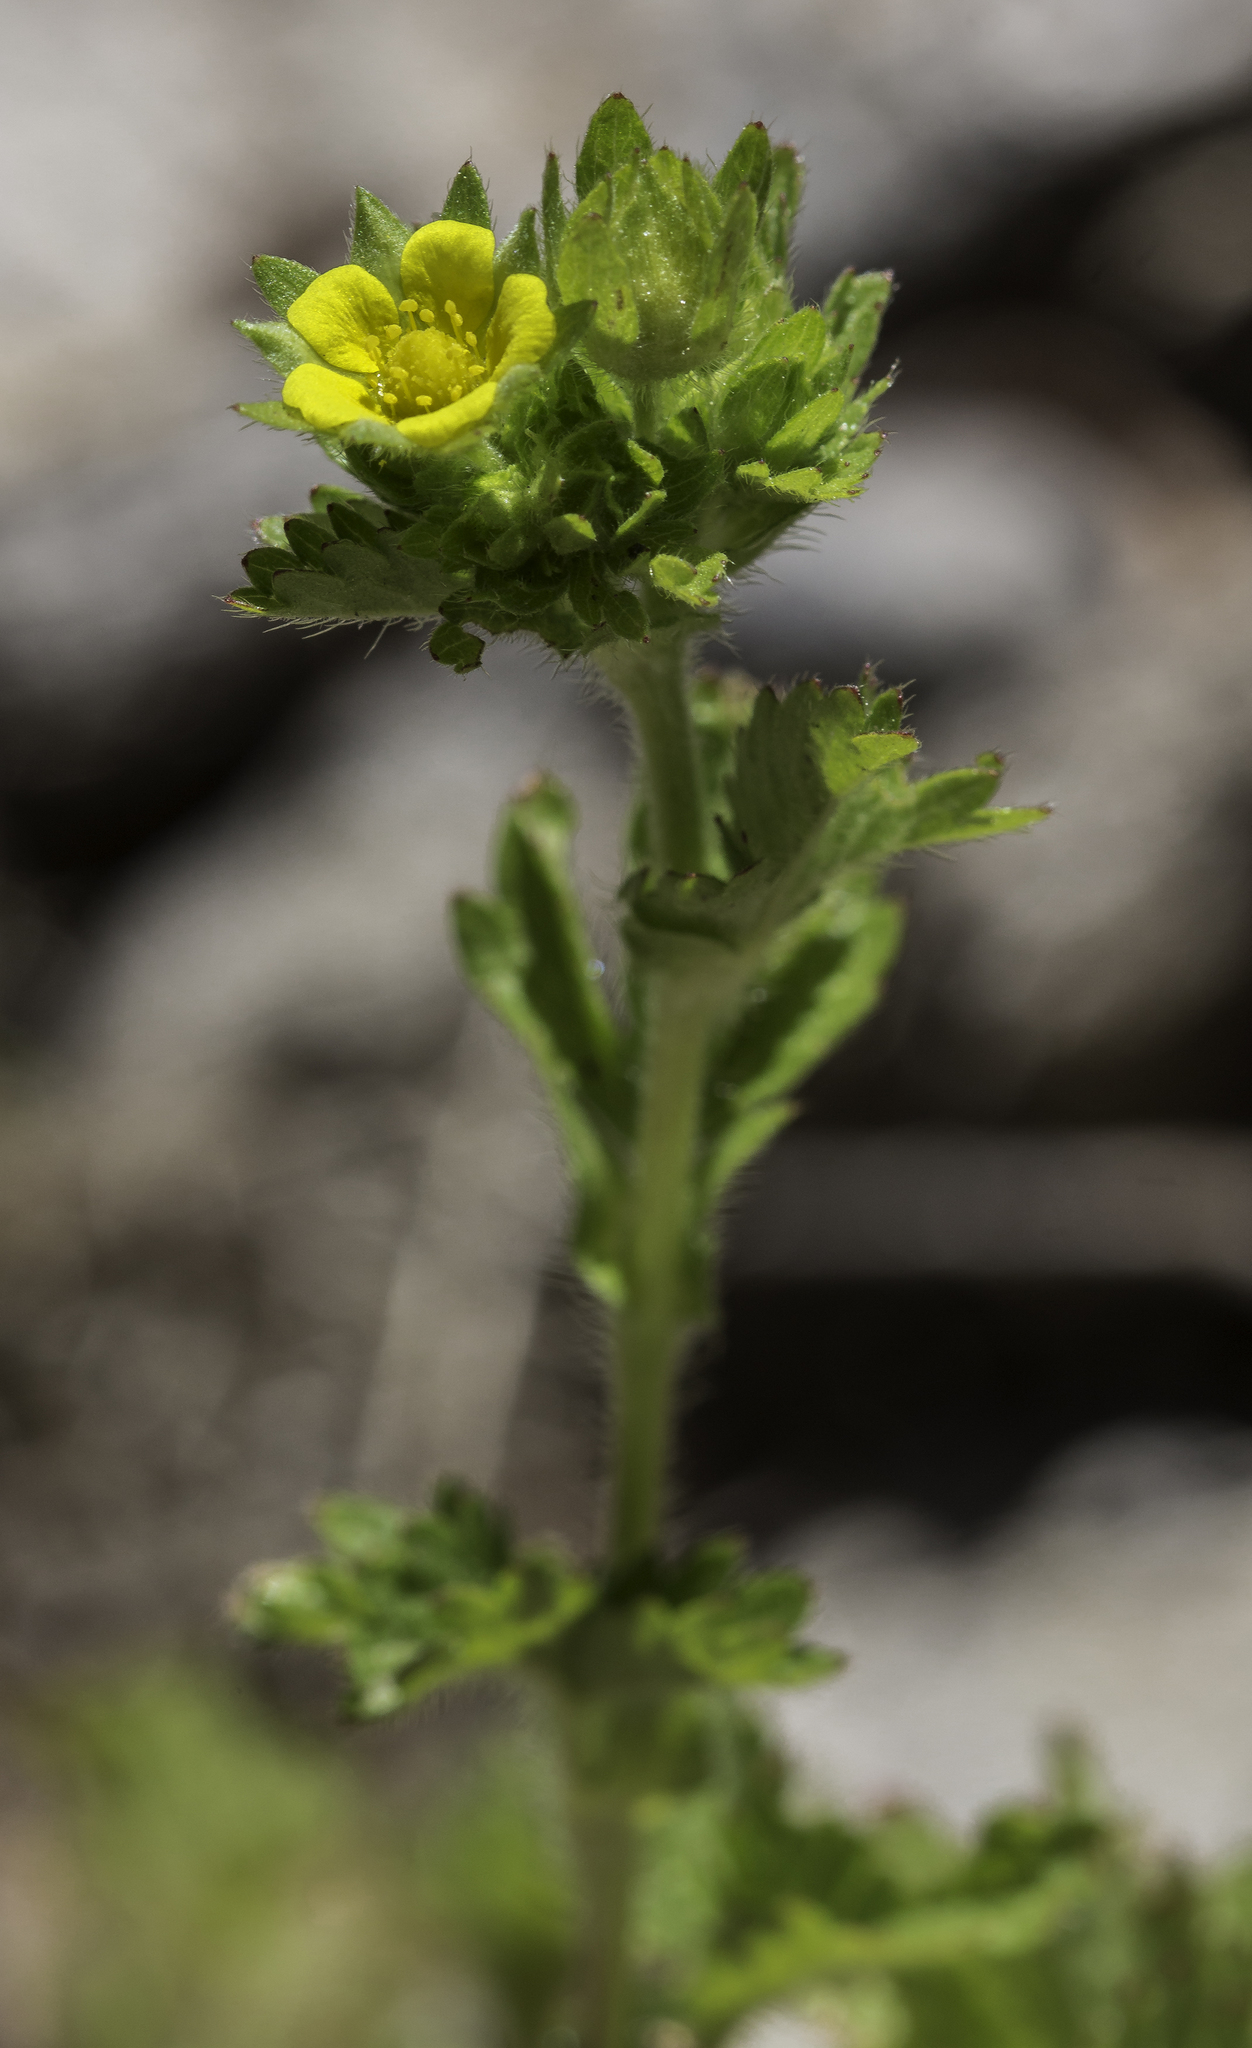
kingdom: Plantae
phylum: Tracheophyta
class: Magnoliopsida
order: Rosales
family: Rosaceae
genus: Potentilla
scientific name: Potentilla norvegica
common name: Ternate-leaved cinquefoil
